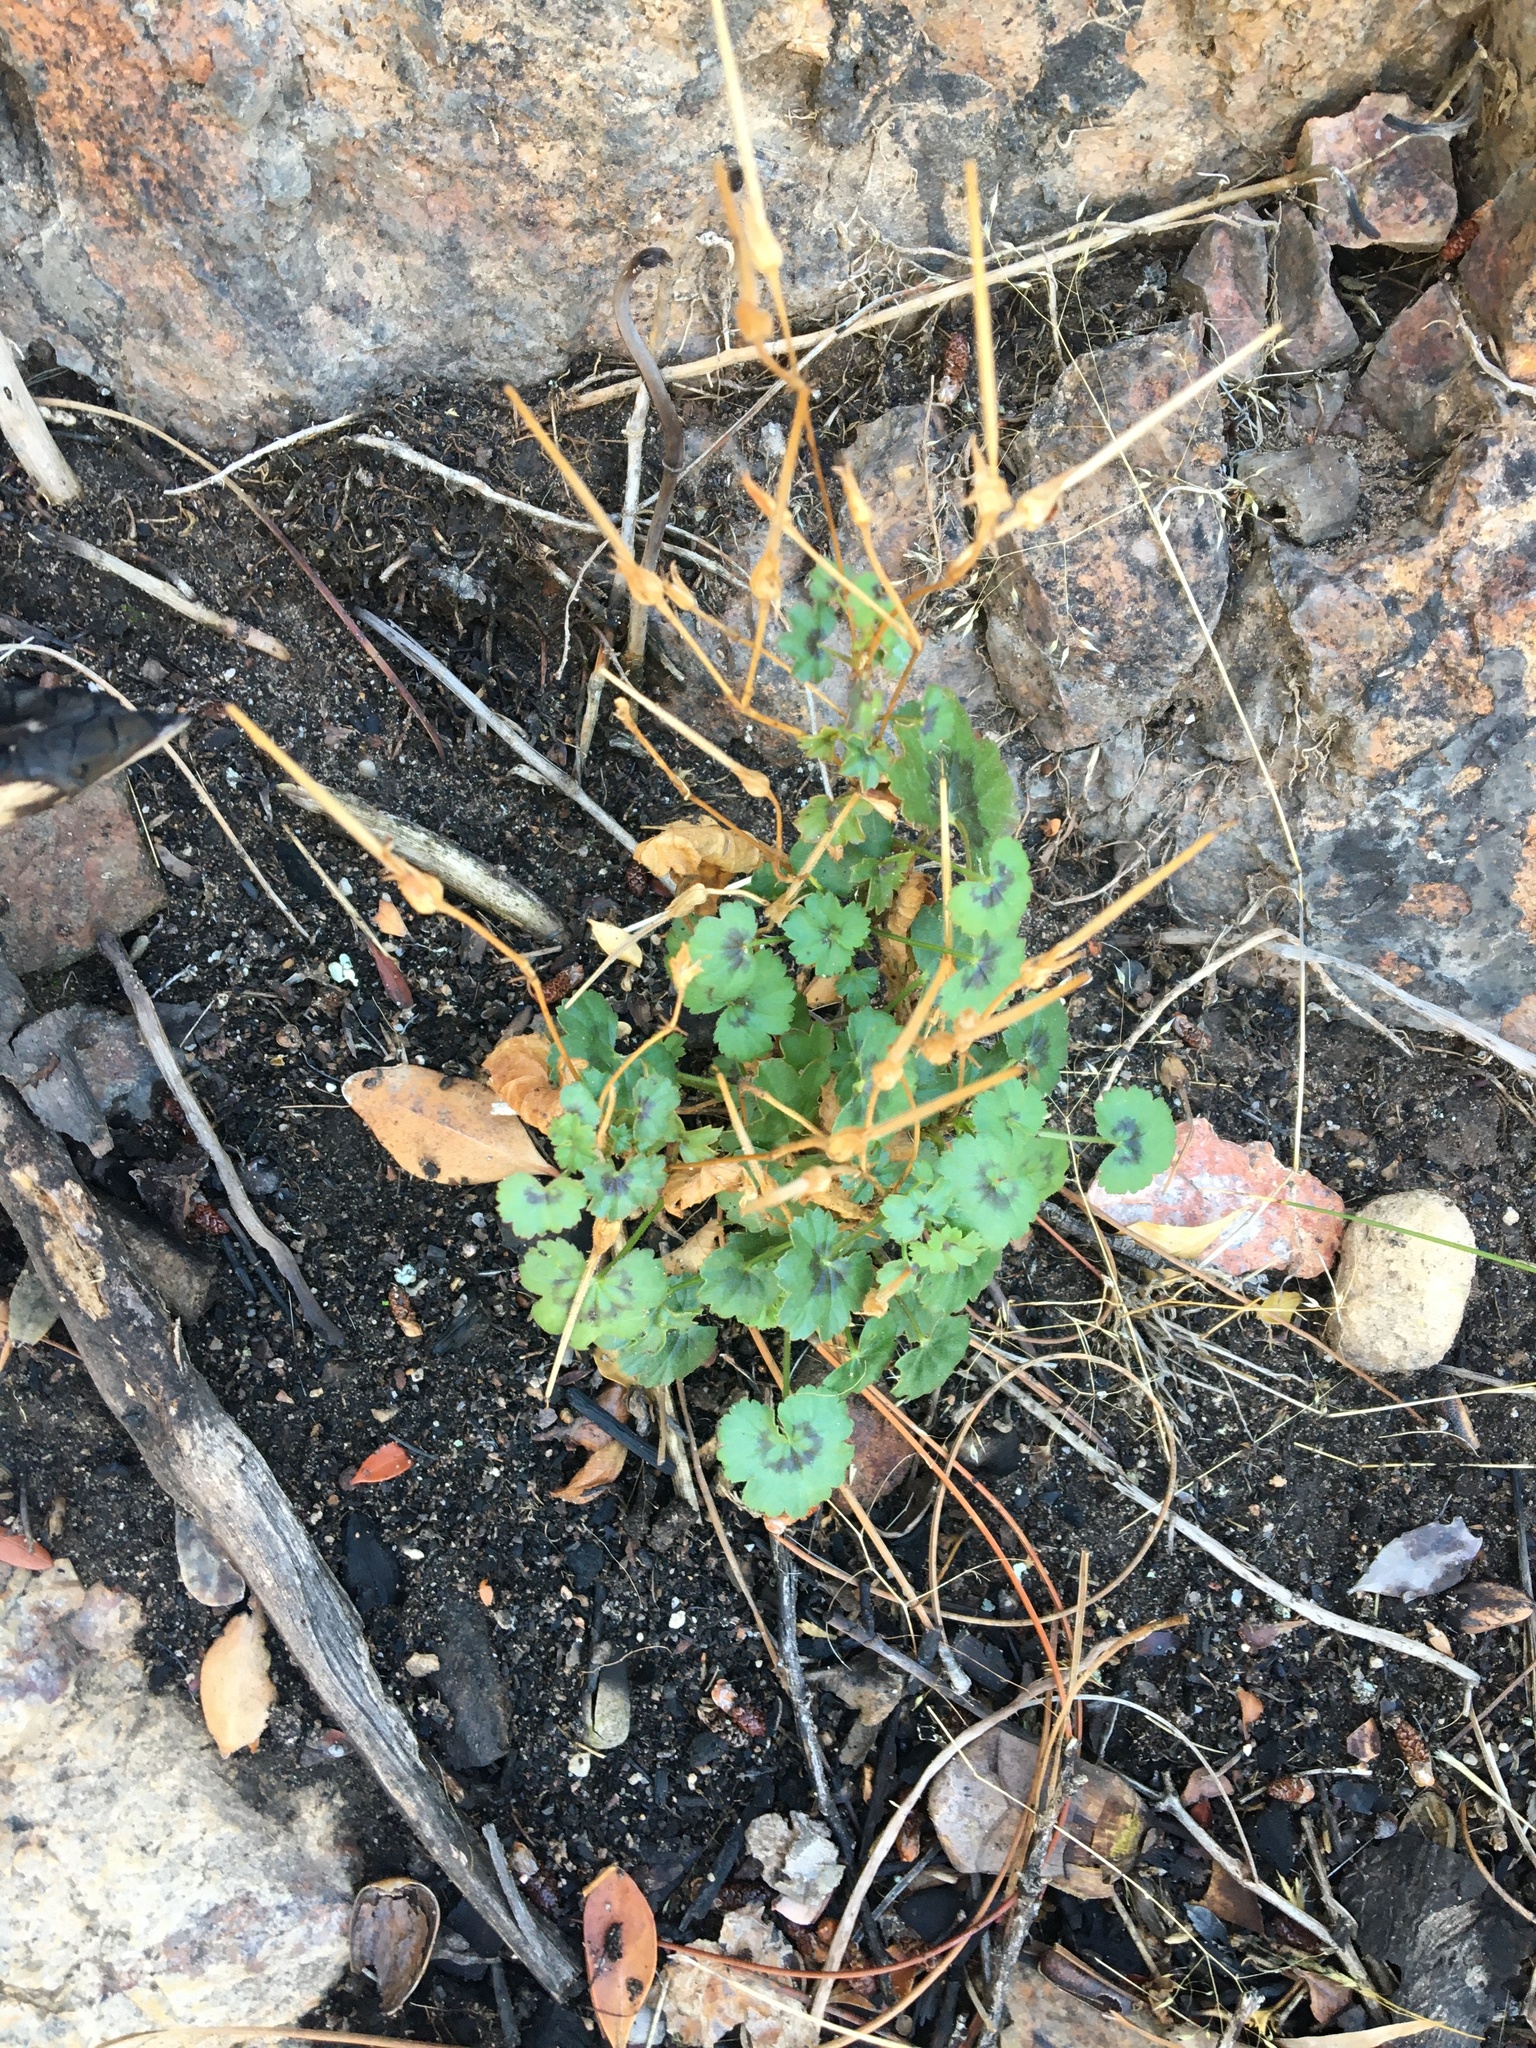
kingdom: Plantae
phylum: Tracheophyta
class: Magnoliopsida
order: Geraniales
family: Geraniaceae
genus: Pelargonium
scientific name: Pelargonium elongatum
